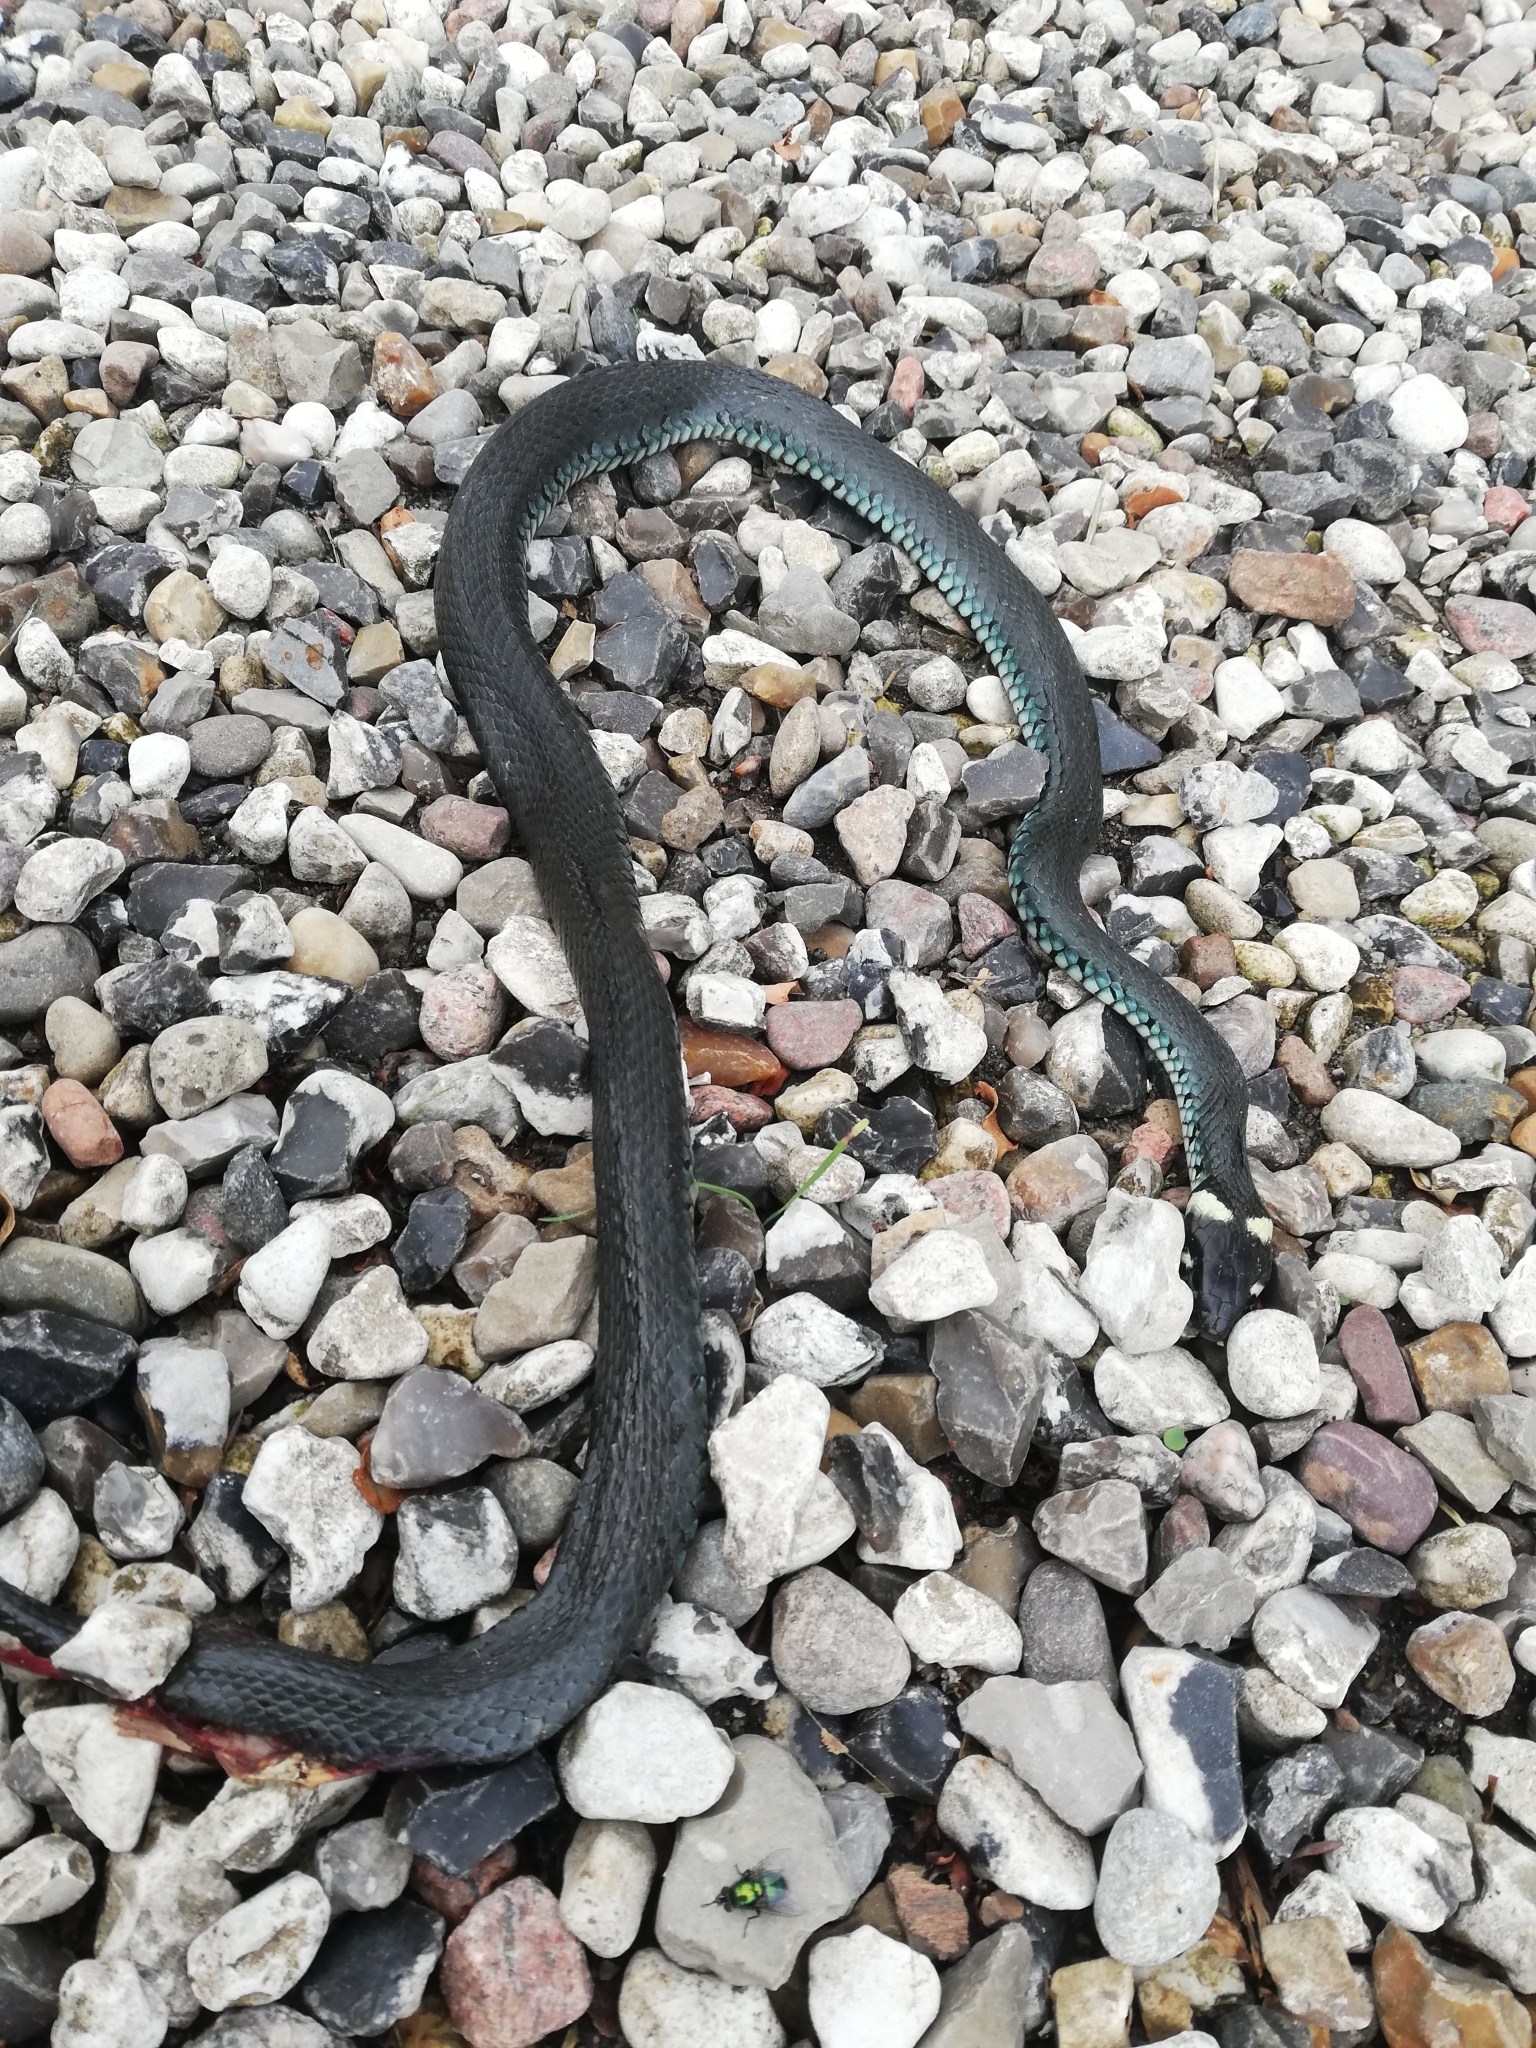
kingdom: Animalia
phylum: Chordata
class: Squamata
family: Colubridae
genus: Natrix
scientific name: Natrix natrix
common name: Grass snake
